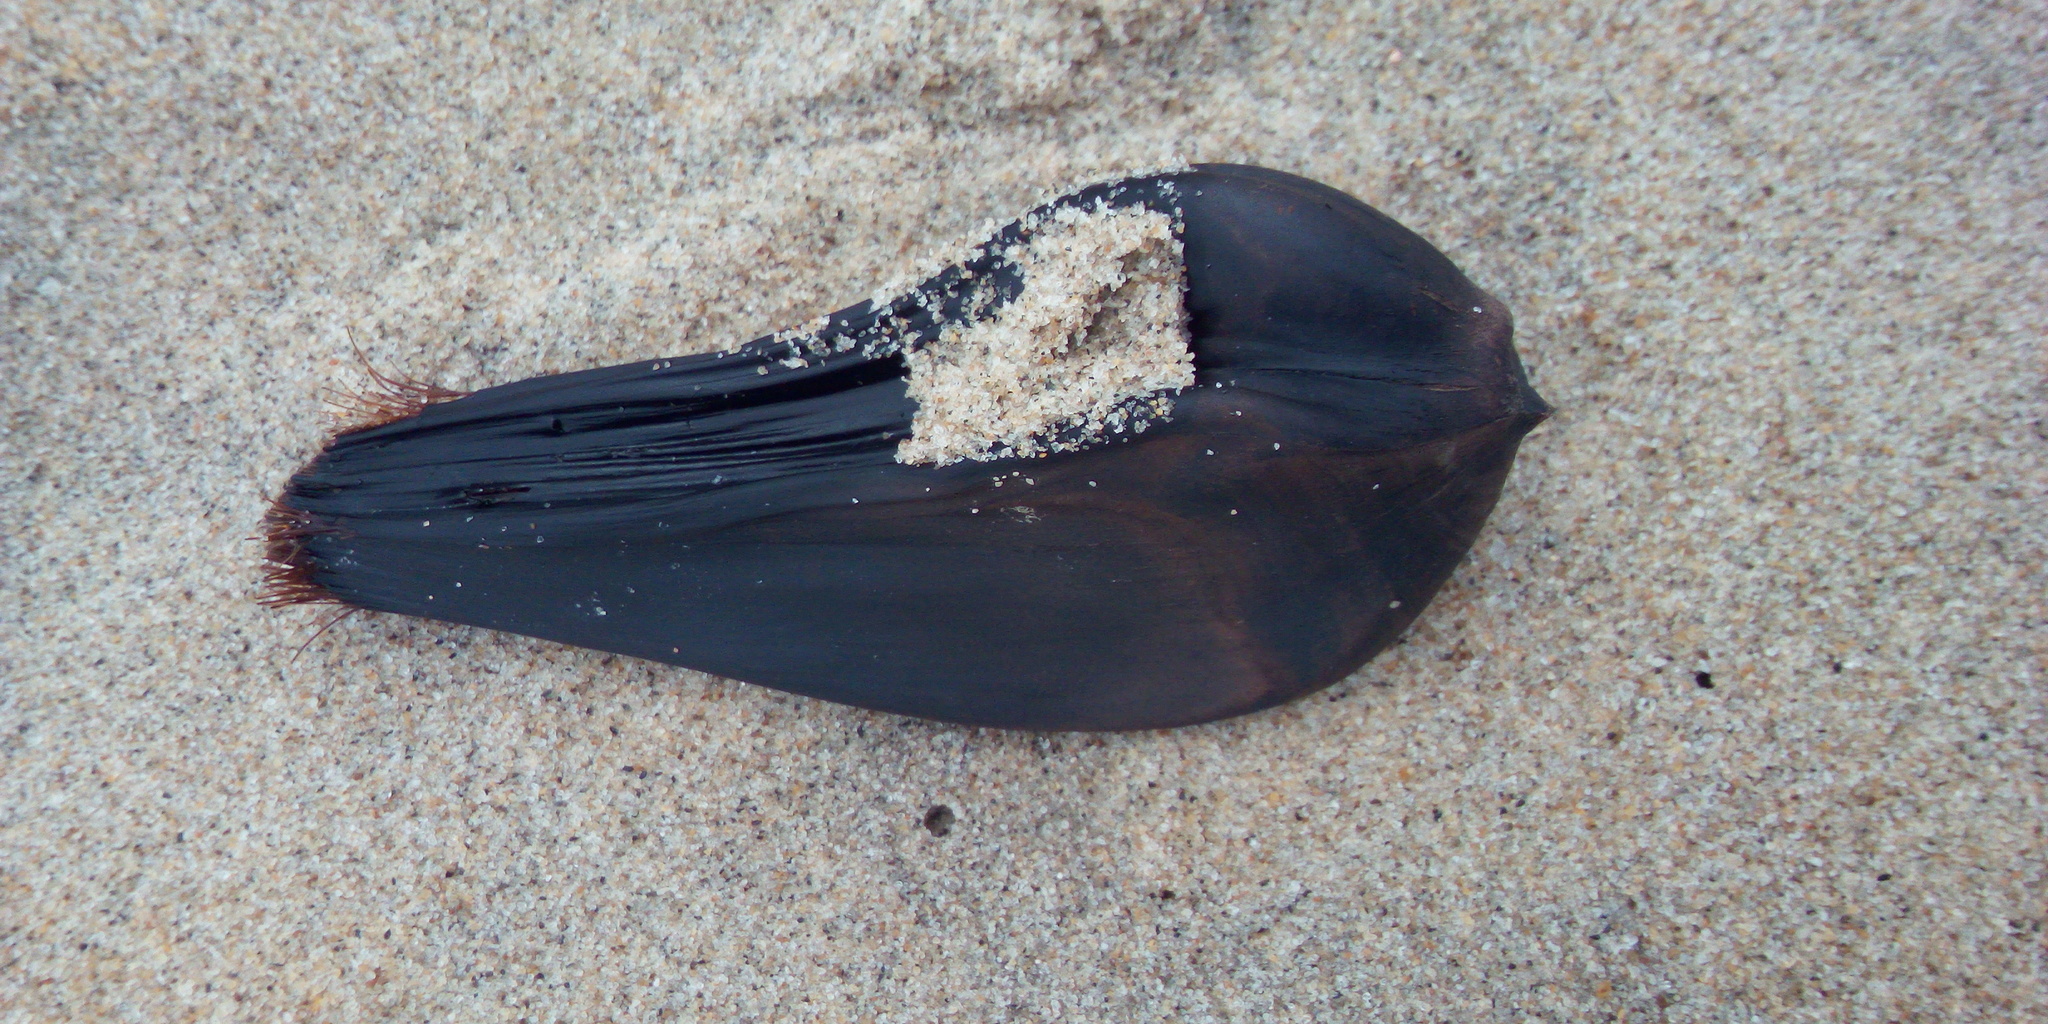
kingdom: Plantae
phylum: Tracheophyta
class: Liliopsida
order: Arecales
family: Arecaceae
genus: Nypa
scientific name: Nypa fruticans
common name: Mangrove palm
